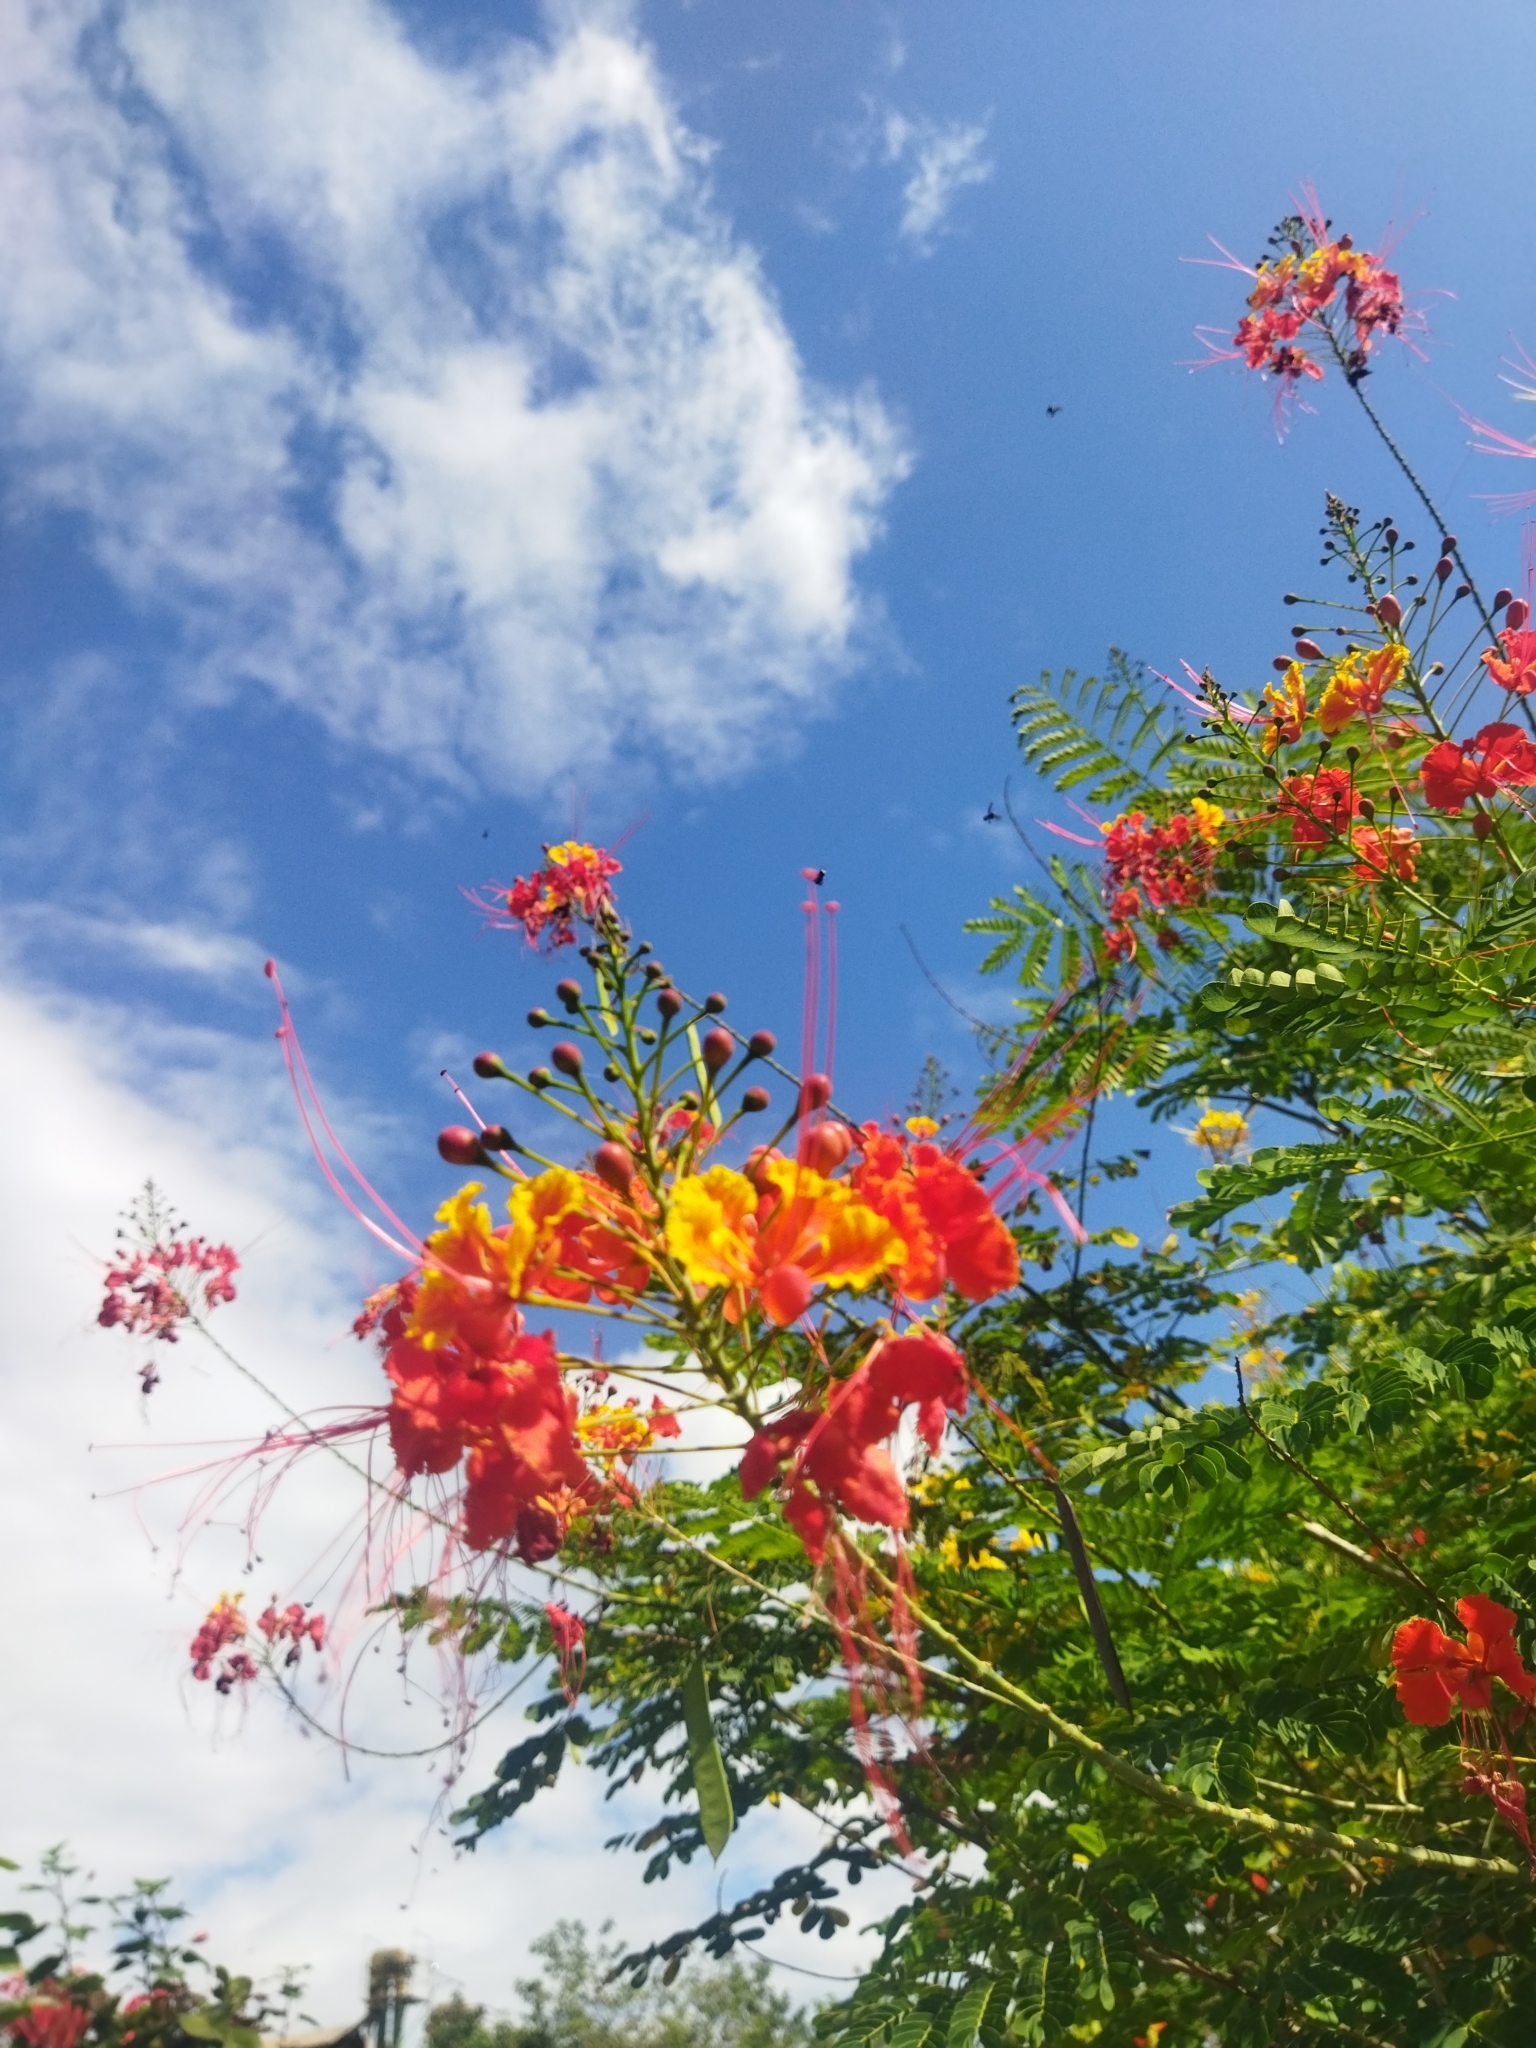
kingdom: Plantae
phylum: Tracheophyta
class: Magnoliopsida
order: Fabales
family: Fabaceae
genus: Caesalpinia
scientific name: Caesalpinia pulcherrima
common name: Pride-of-barbados
